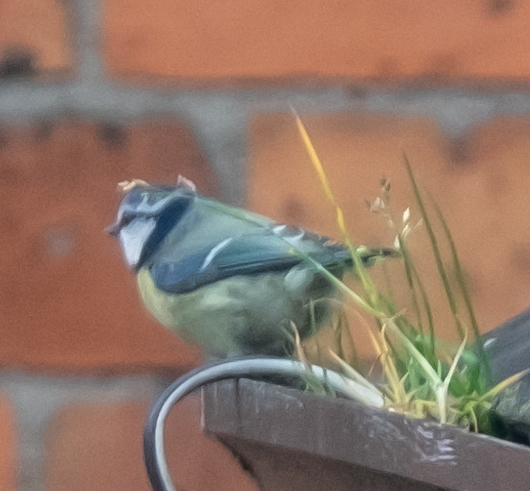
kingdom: Animalia
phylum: Chordata
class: Aves
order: Passeriformes
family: Paridae
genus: Cyanistes
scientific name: Cyanistes caeruleus
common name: Eurasian blue tit
